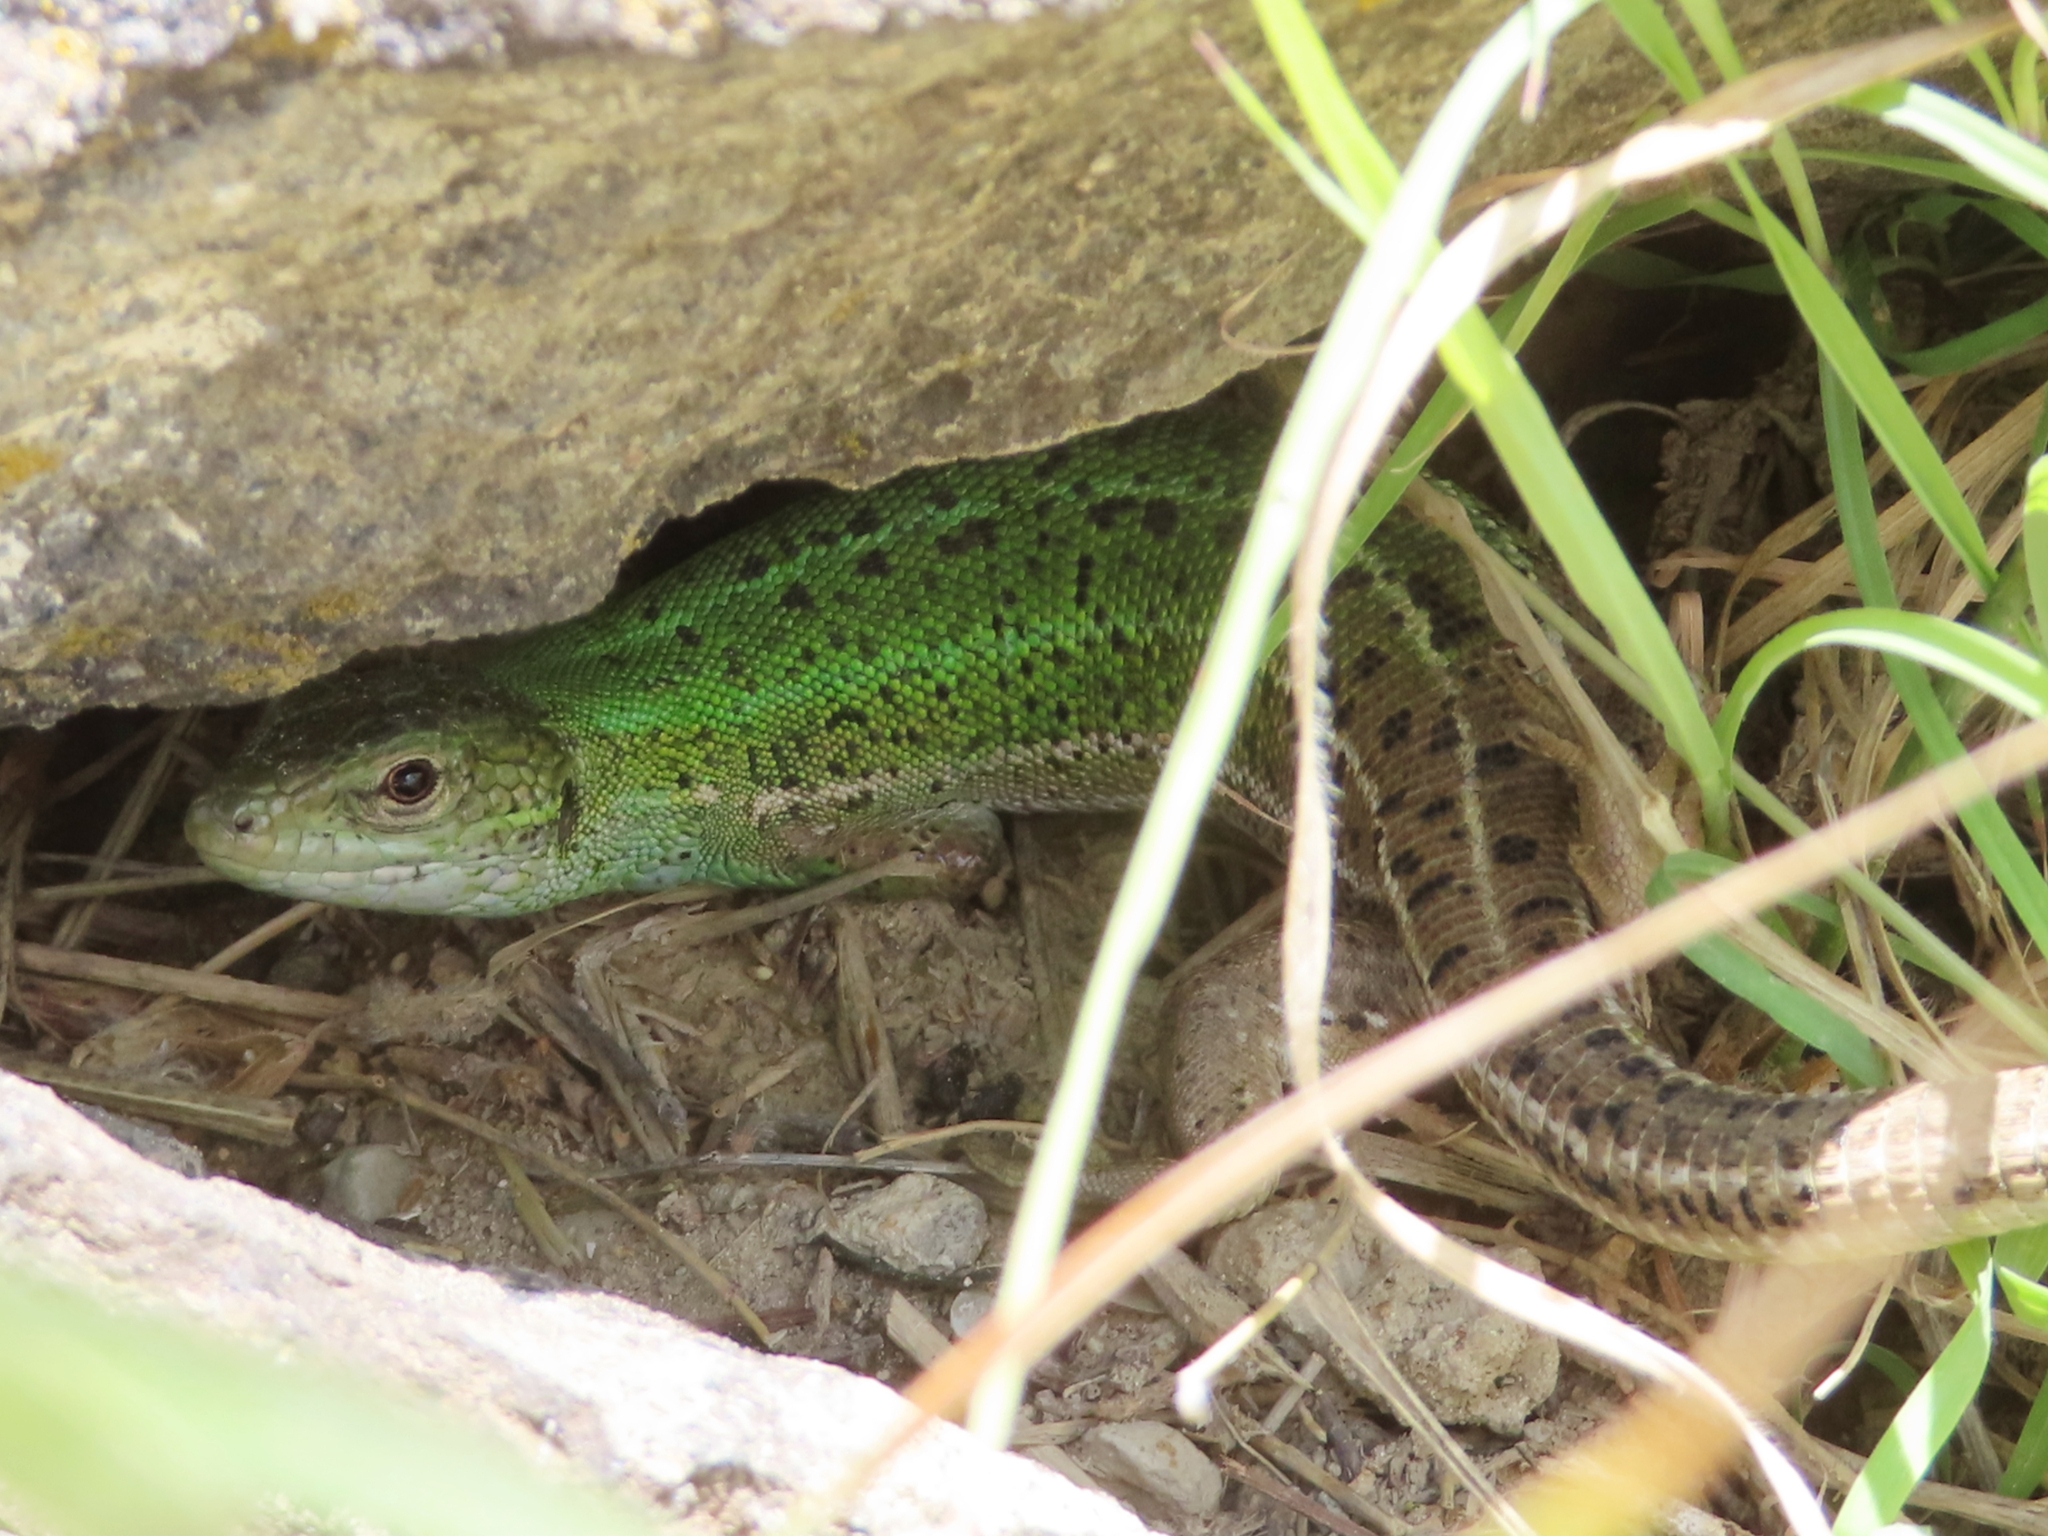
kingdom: Animalia
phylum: Chordata
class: Squamata
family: Lacertidae
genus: Lacerta
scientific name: Lacerta strigata
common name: Caspian green lizard
